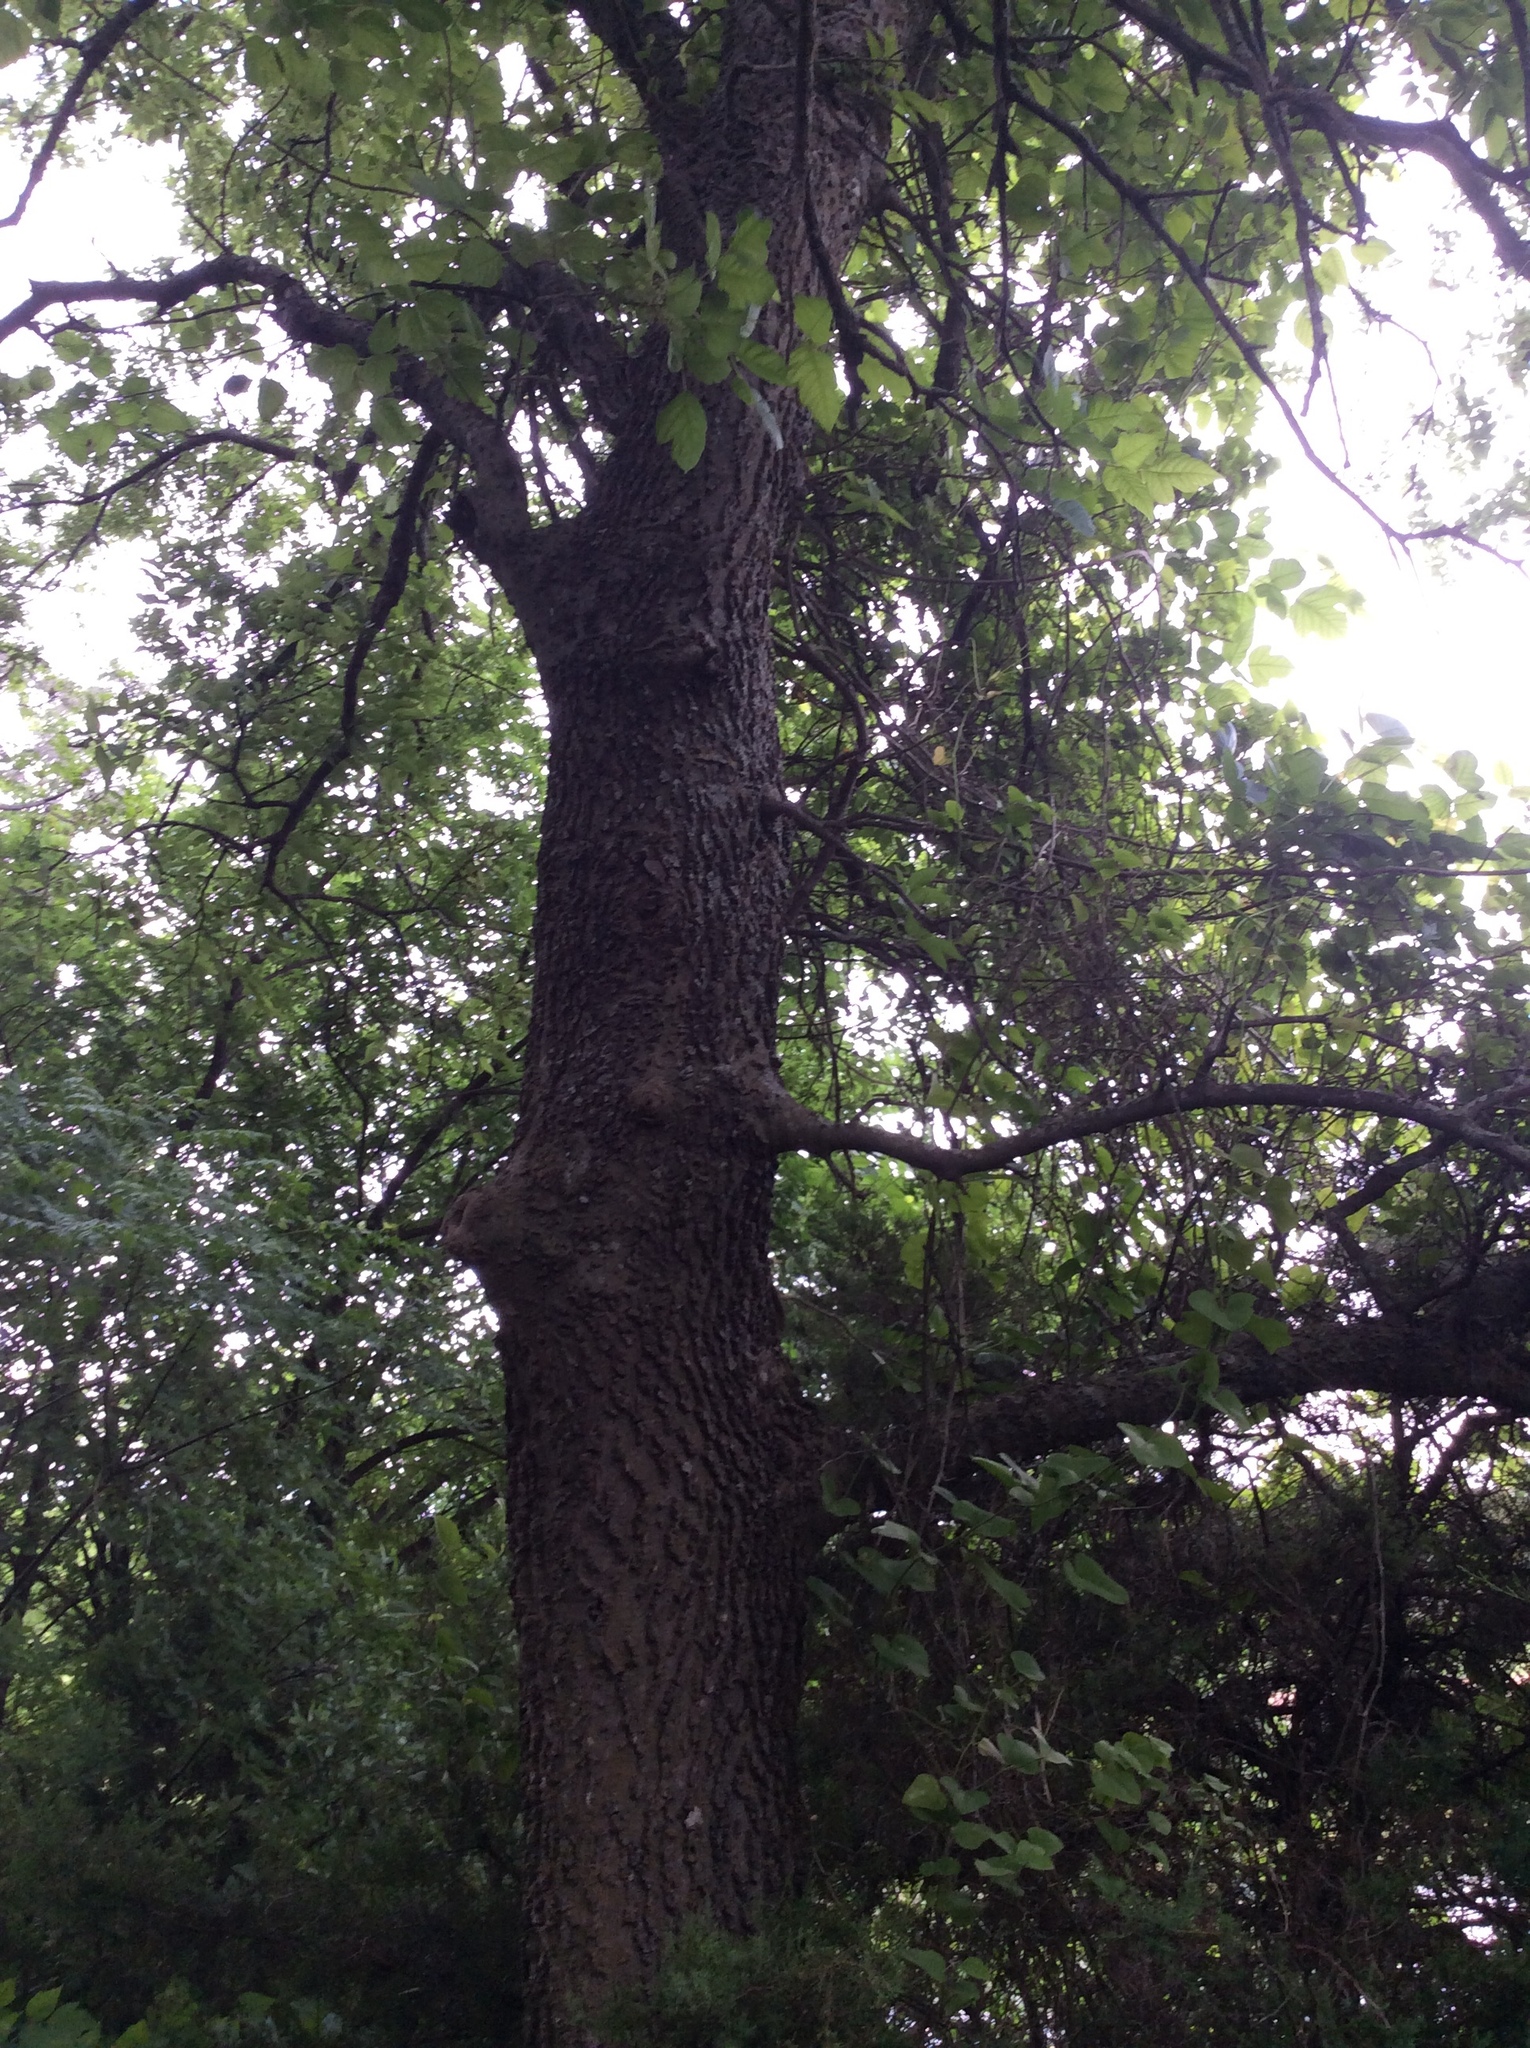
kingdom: Plantae
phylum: Tracheophyta
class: Magnoliopsida
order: Rosales
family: Cannabaceae
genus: Celtis
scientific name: Celtis laevigata
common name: Sugarberry
